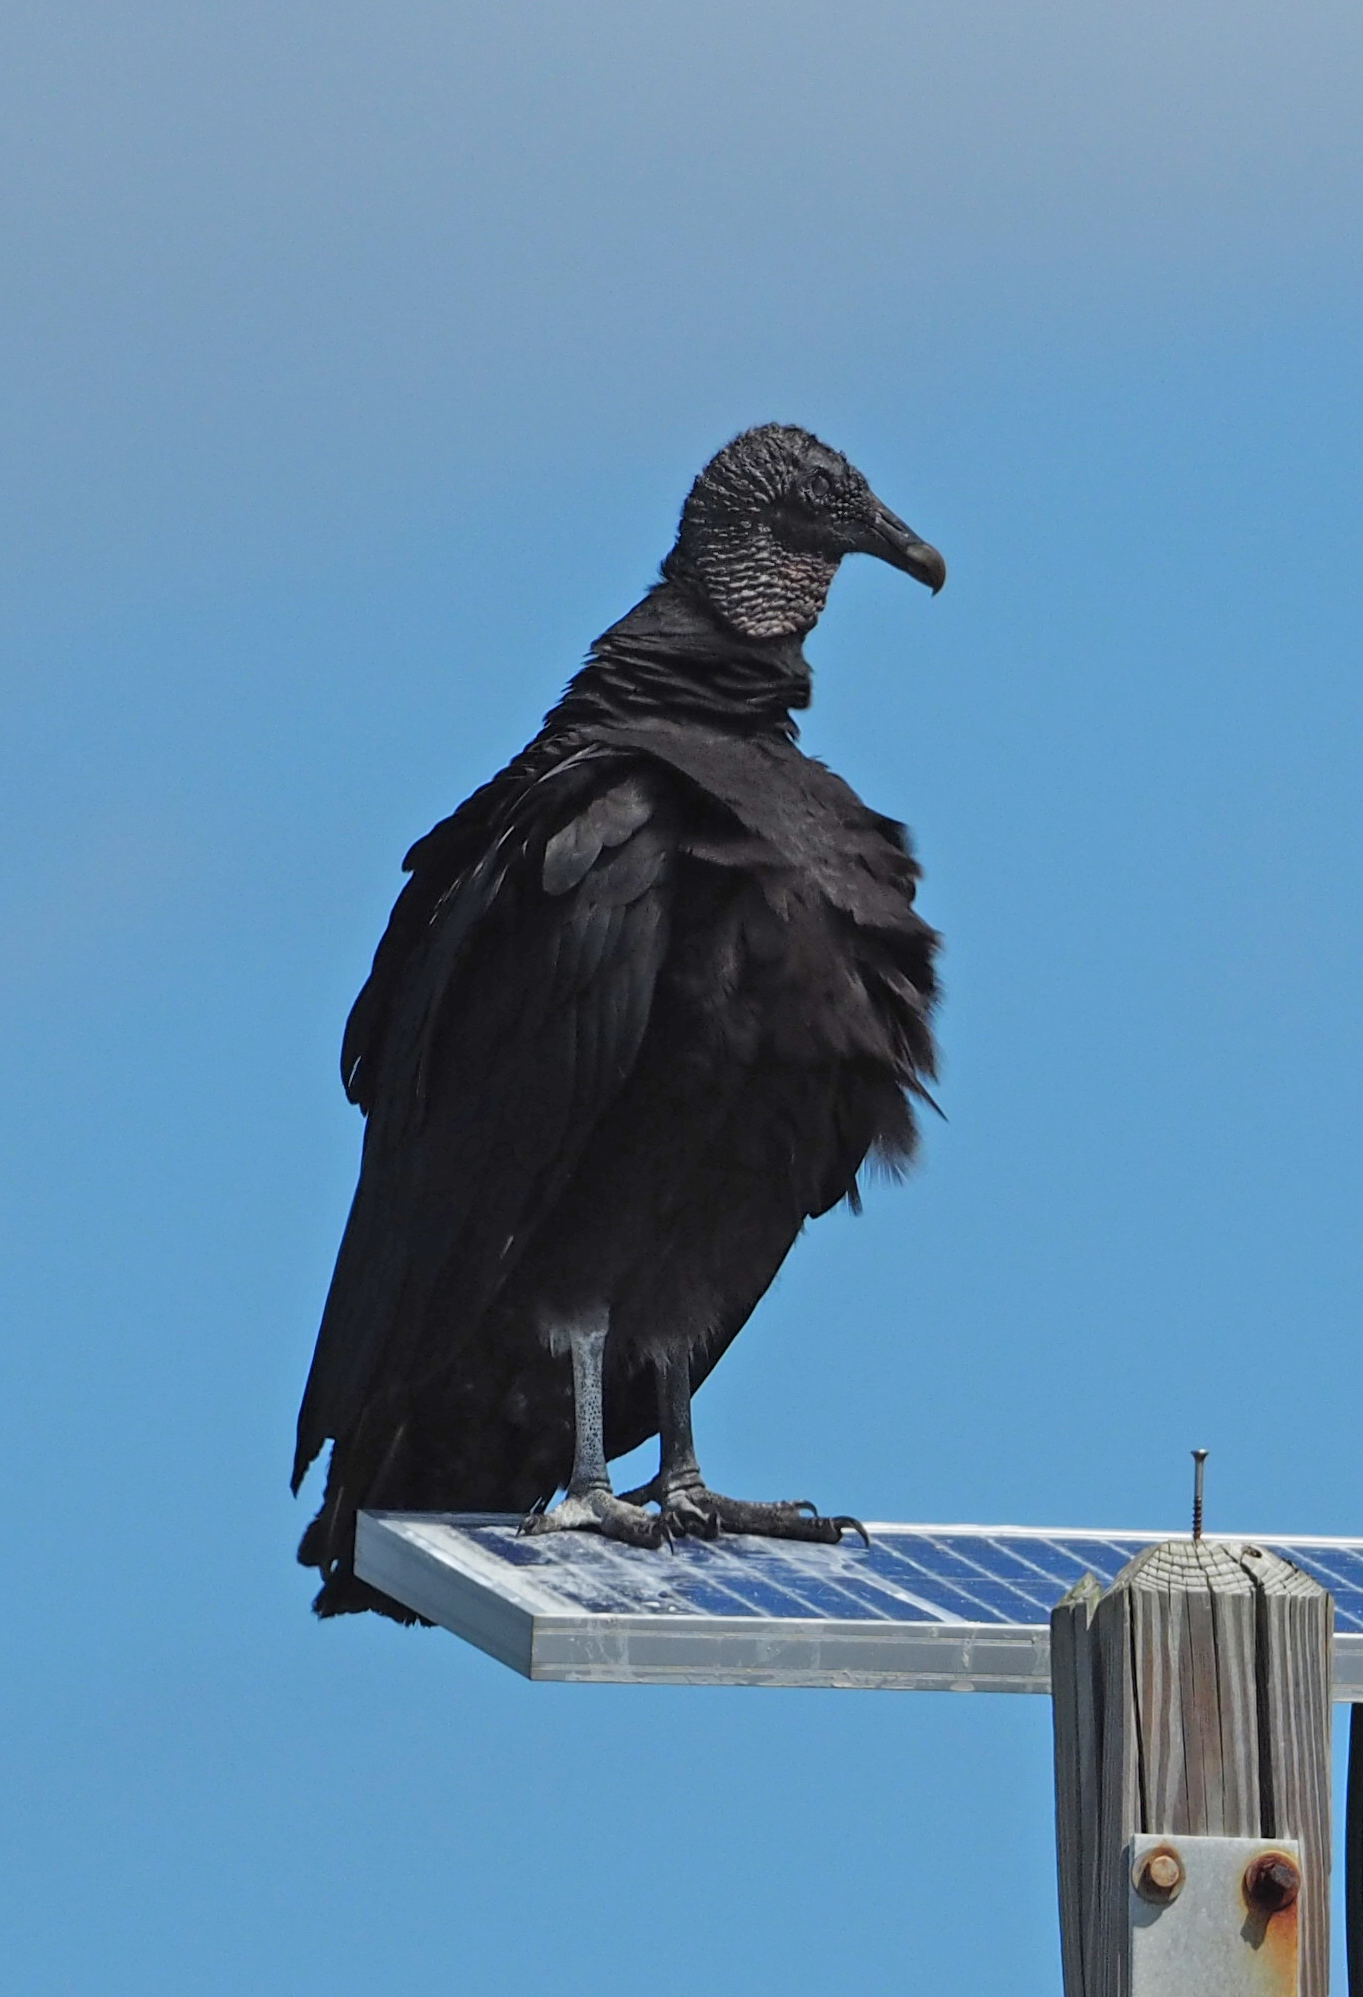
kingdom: Animalia
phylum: Chordata
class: Aves
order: Accipitriformes
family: Cathartidae
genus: Coragyps
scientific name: Coragyps atratus
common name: Black vulture
